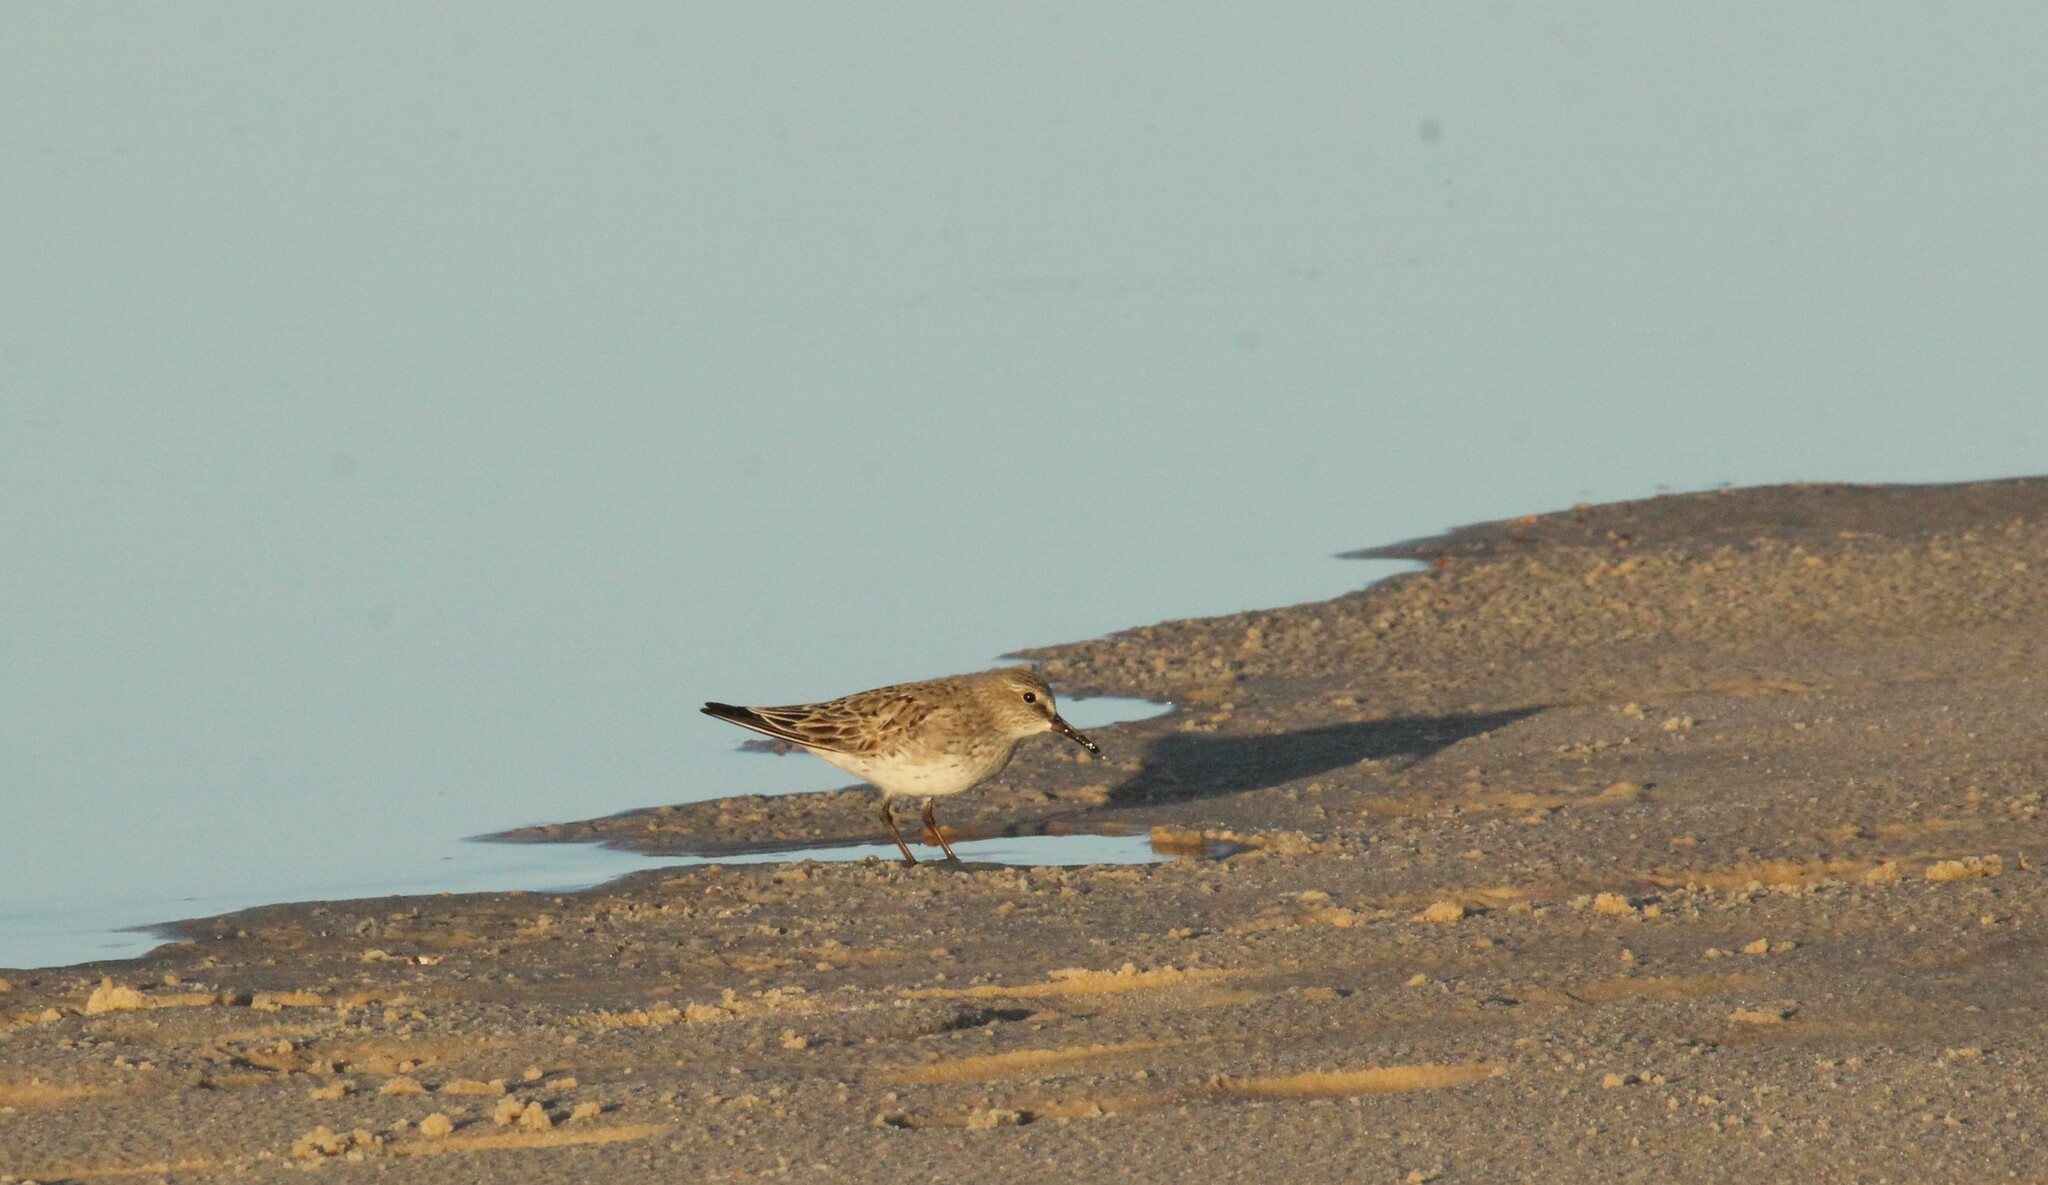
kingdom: Animalia
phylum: Chordata
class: Aves
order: Charadriiformes
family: Scolopacidae
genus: Calidris
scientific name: Calidris fuscicollis
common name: White-rumped sandpiper
